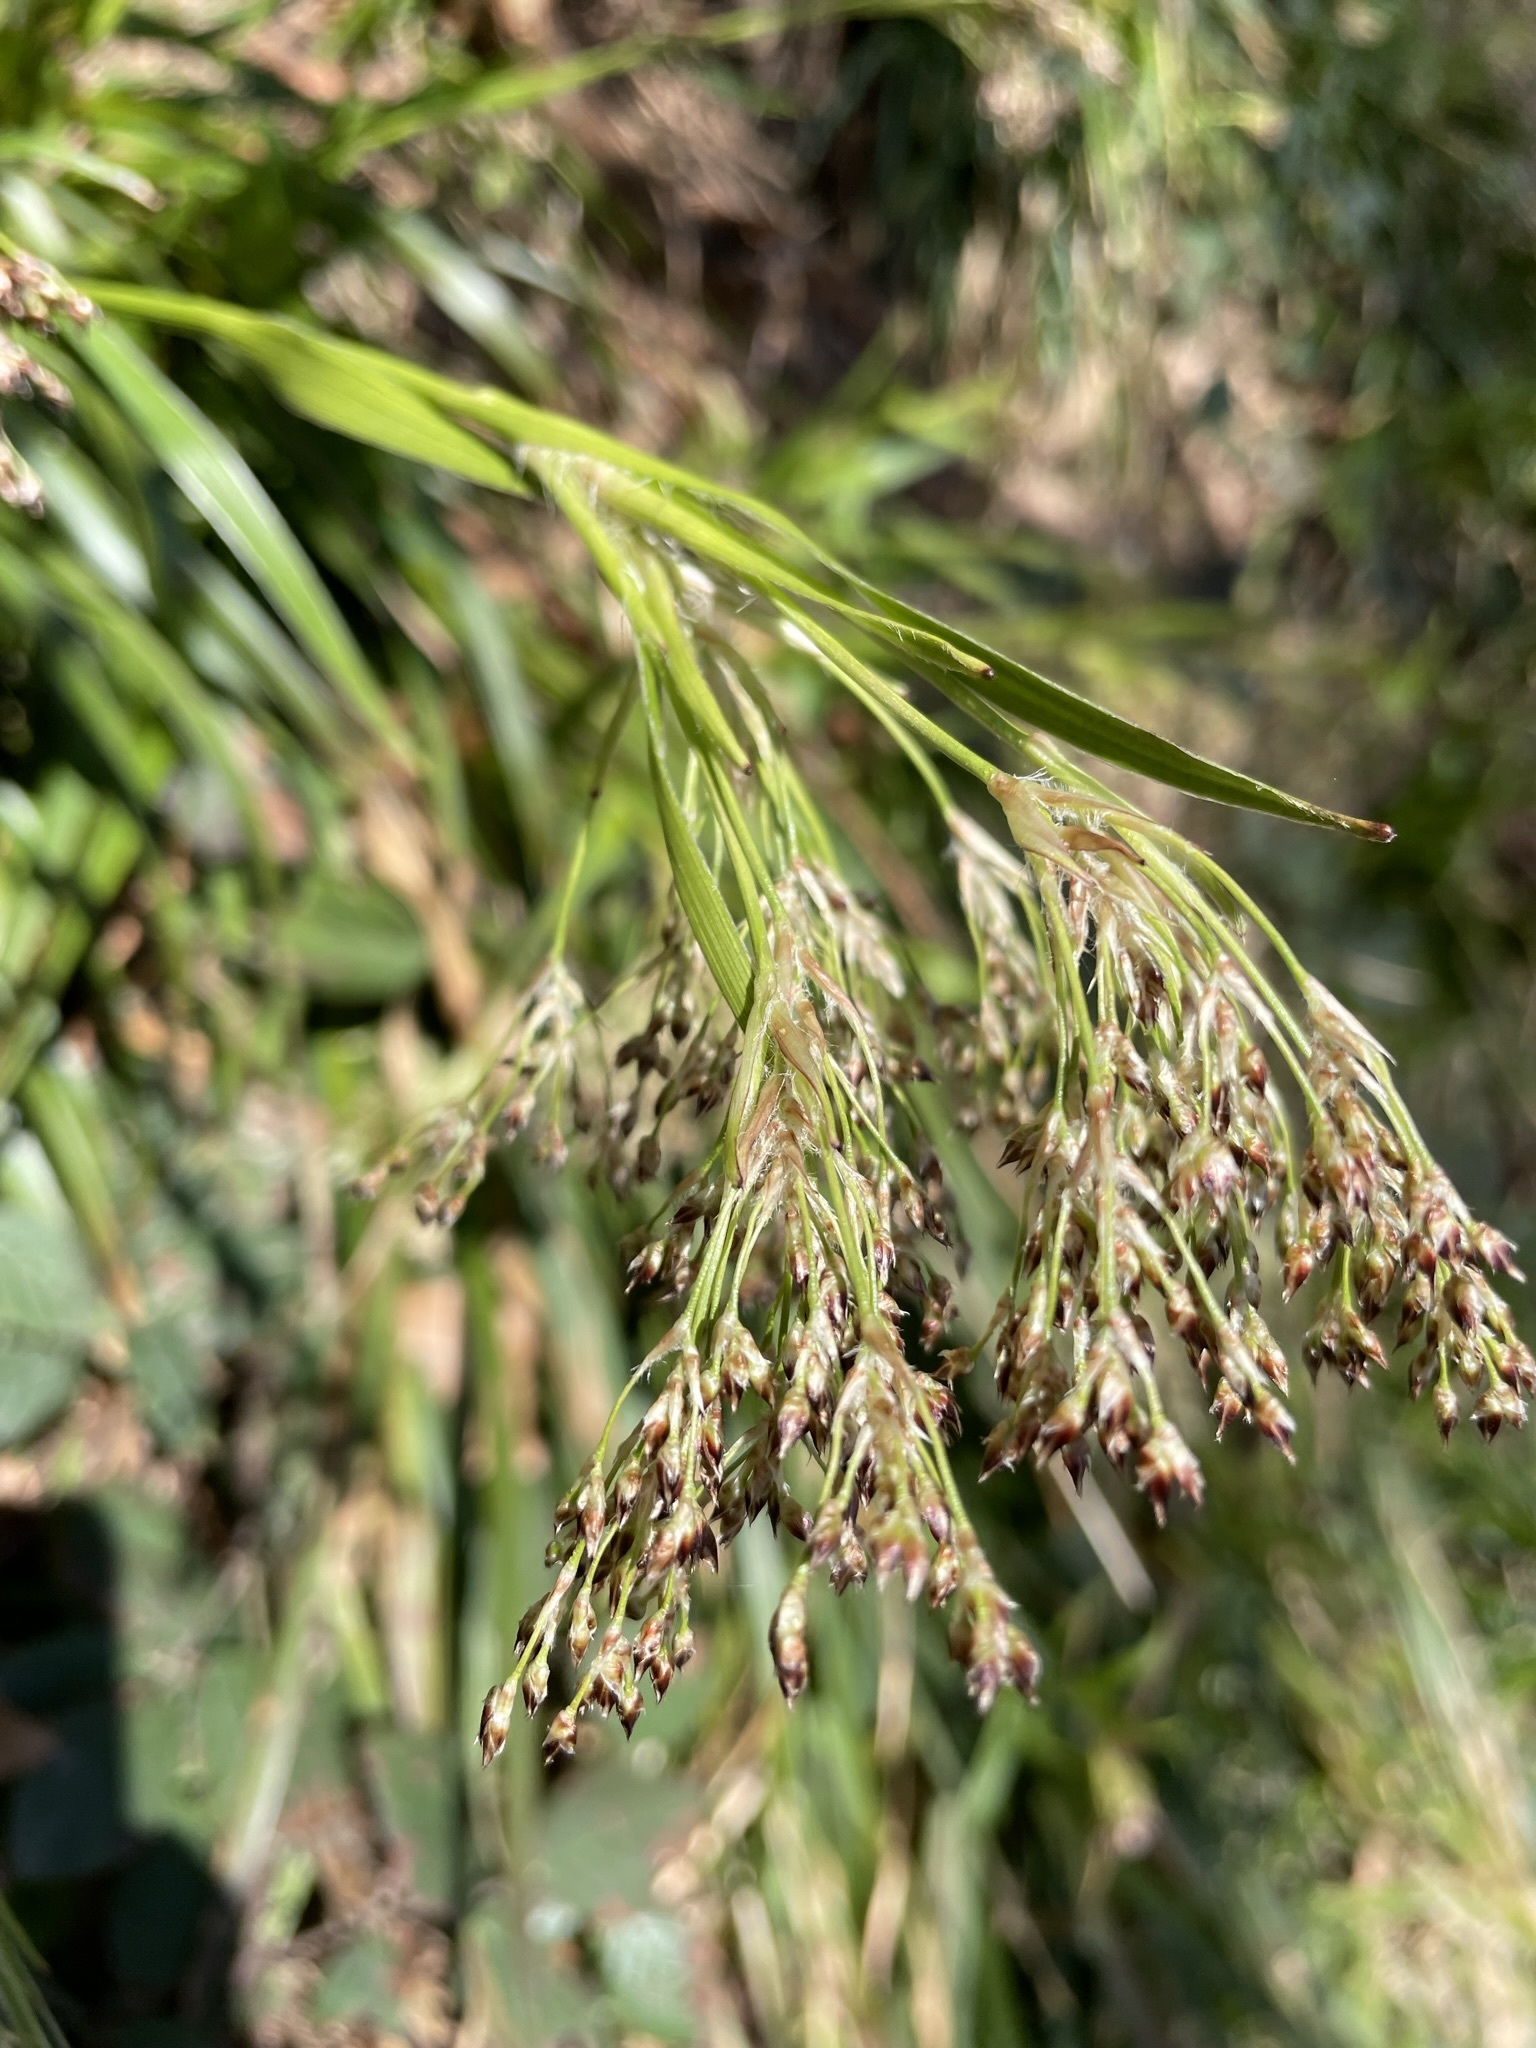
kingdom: Plantae
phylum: Tracheophyta
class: Liliopsida
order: Poales
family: Juncaceae
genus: Luzula
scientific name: Luzula sylvatica
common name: Great wood-rush
